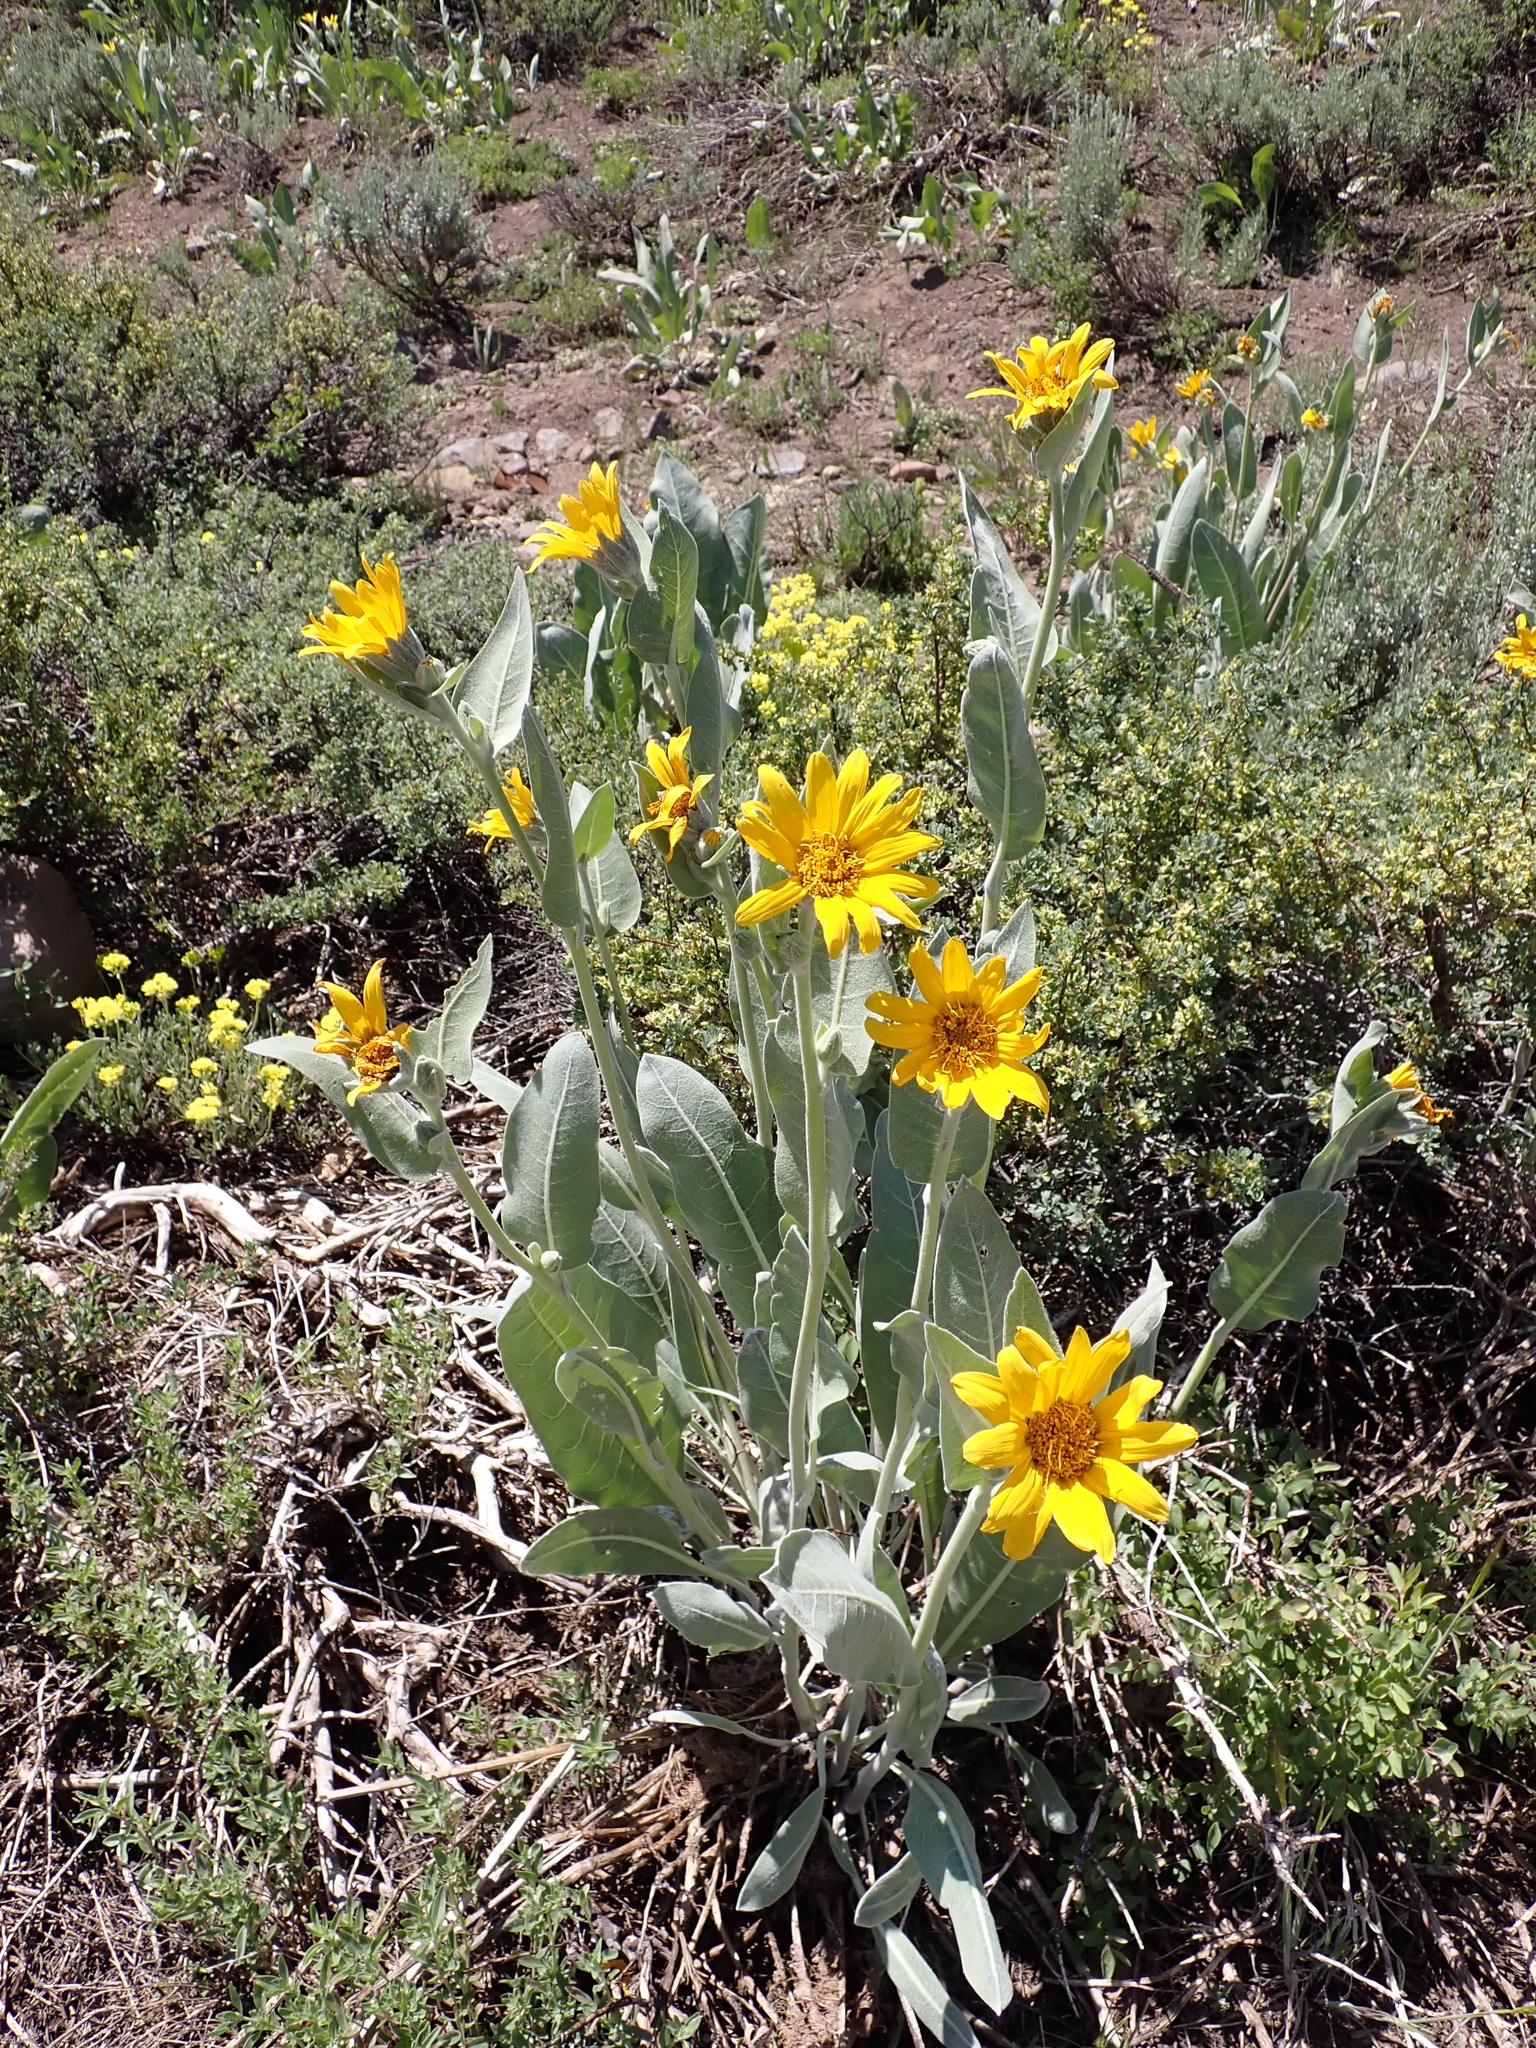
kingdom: Plantae
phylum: Tracheophyta
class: Magnoliopsida
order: Asterales
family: Asteraceae
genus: Wyethia
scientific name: Wyethia mollis
